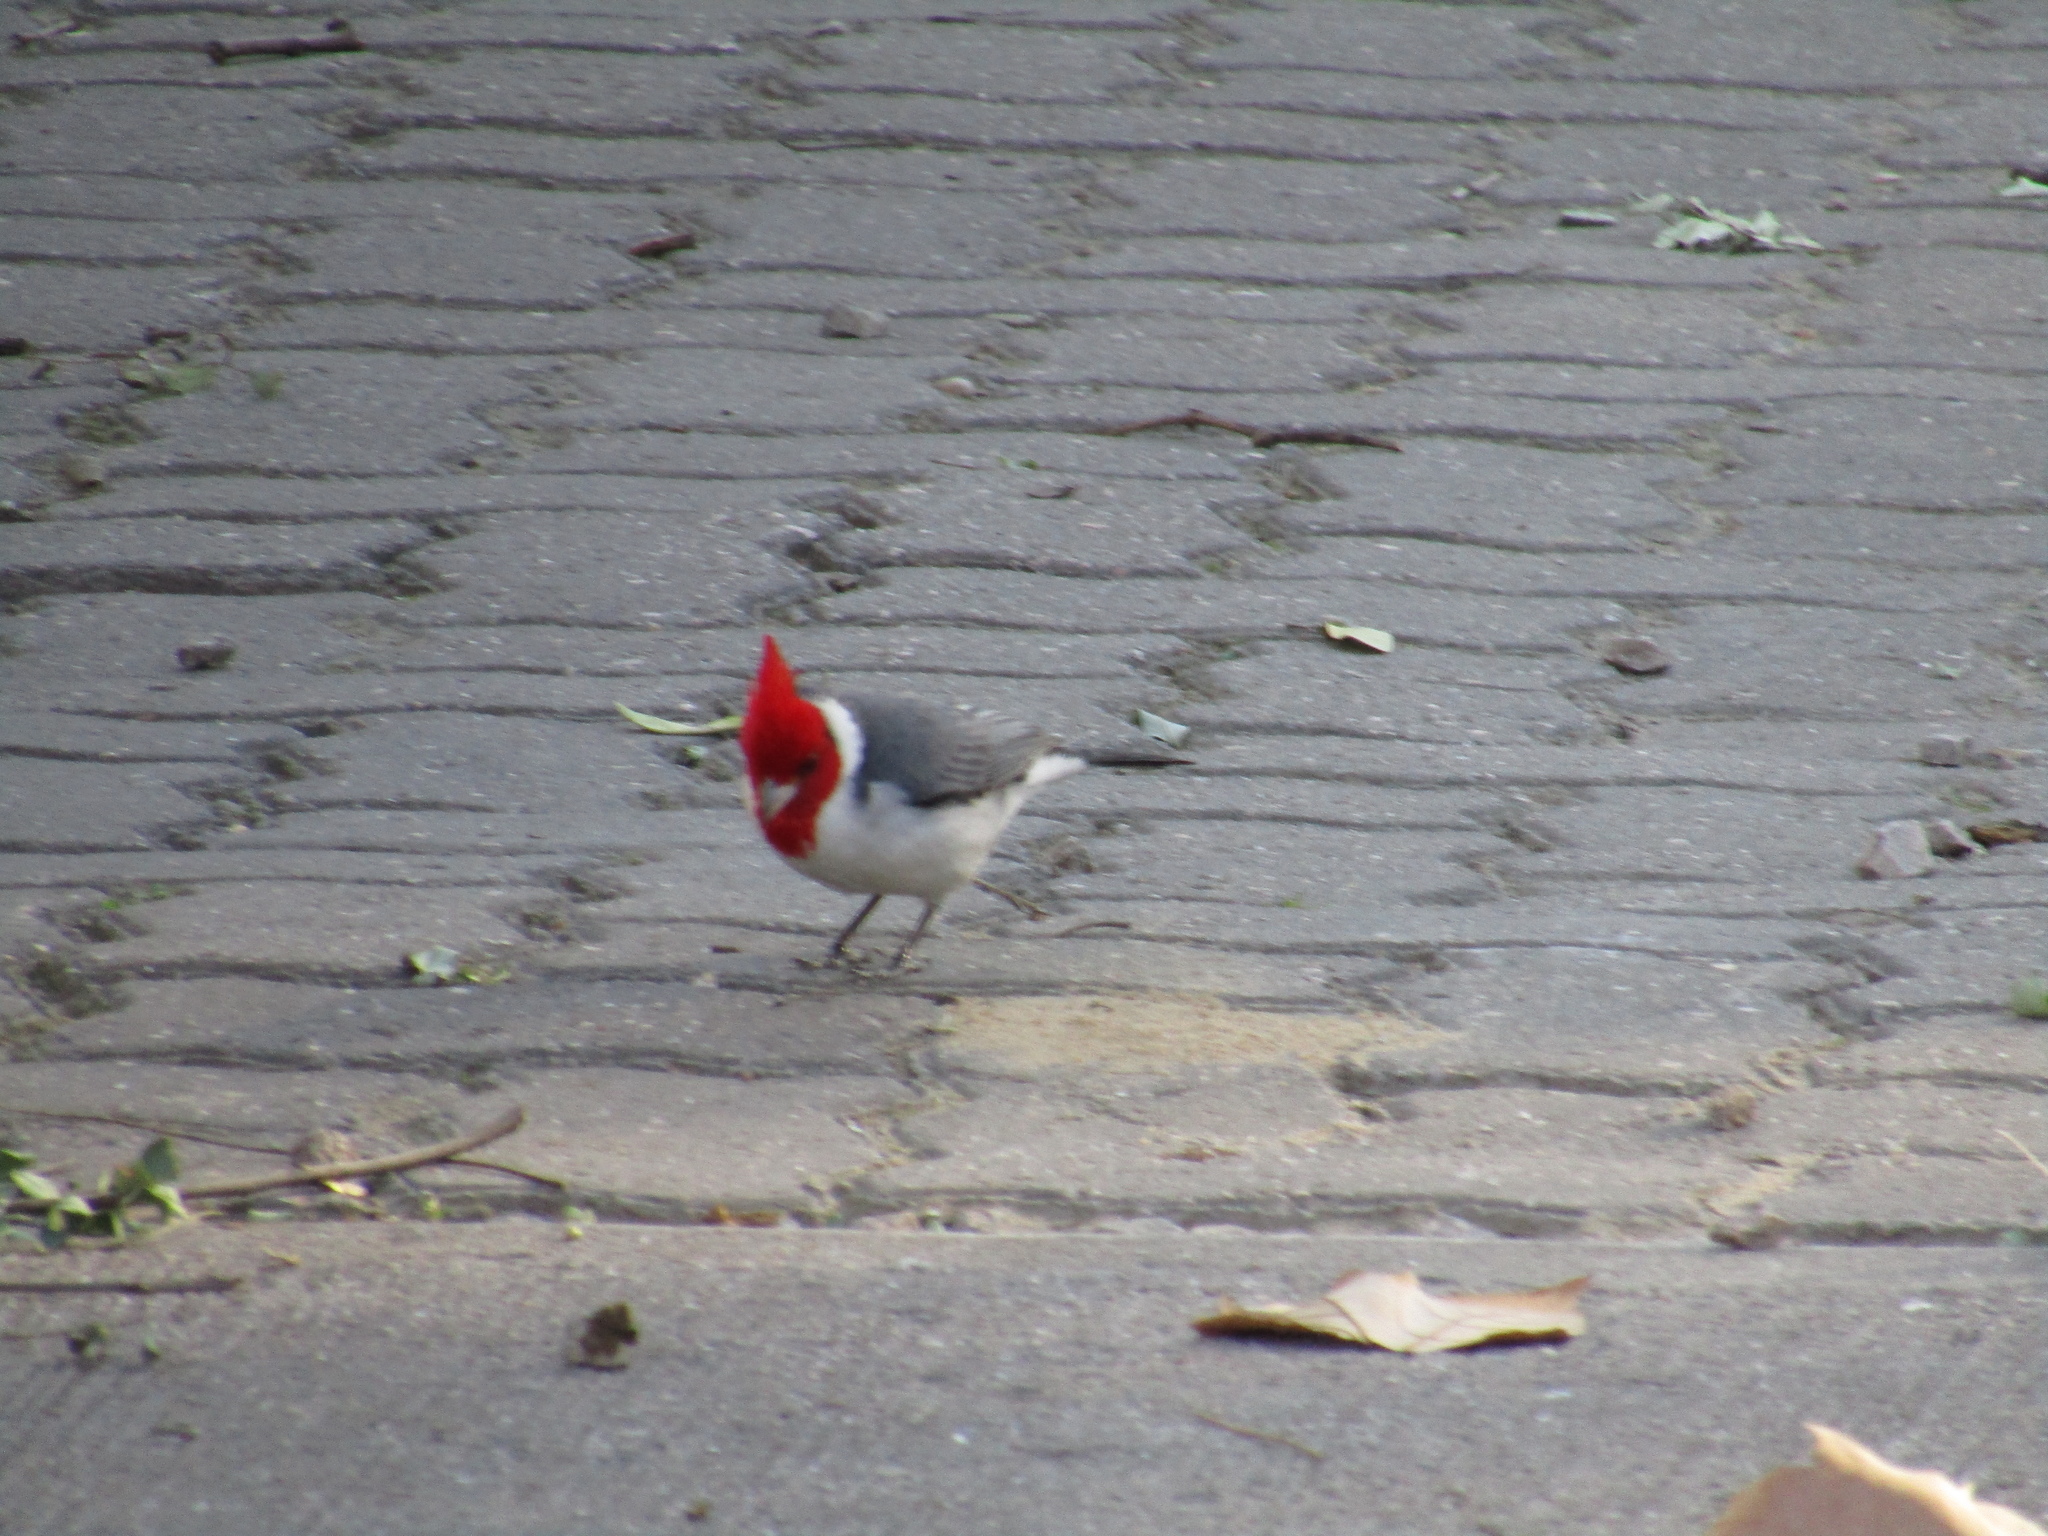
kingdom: Animalia
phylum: Chordata
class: Aves
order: Passeriformes
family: Thraupidae
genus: Paroaria
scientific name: Paroaria coronata
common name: Red-crested cardinal
